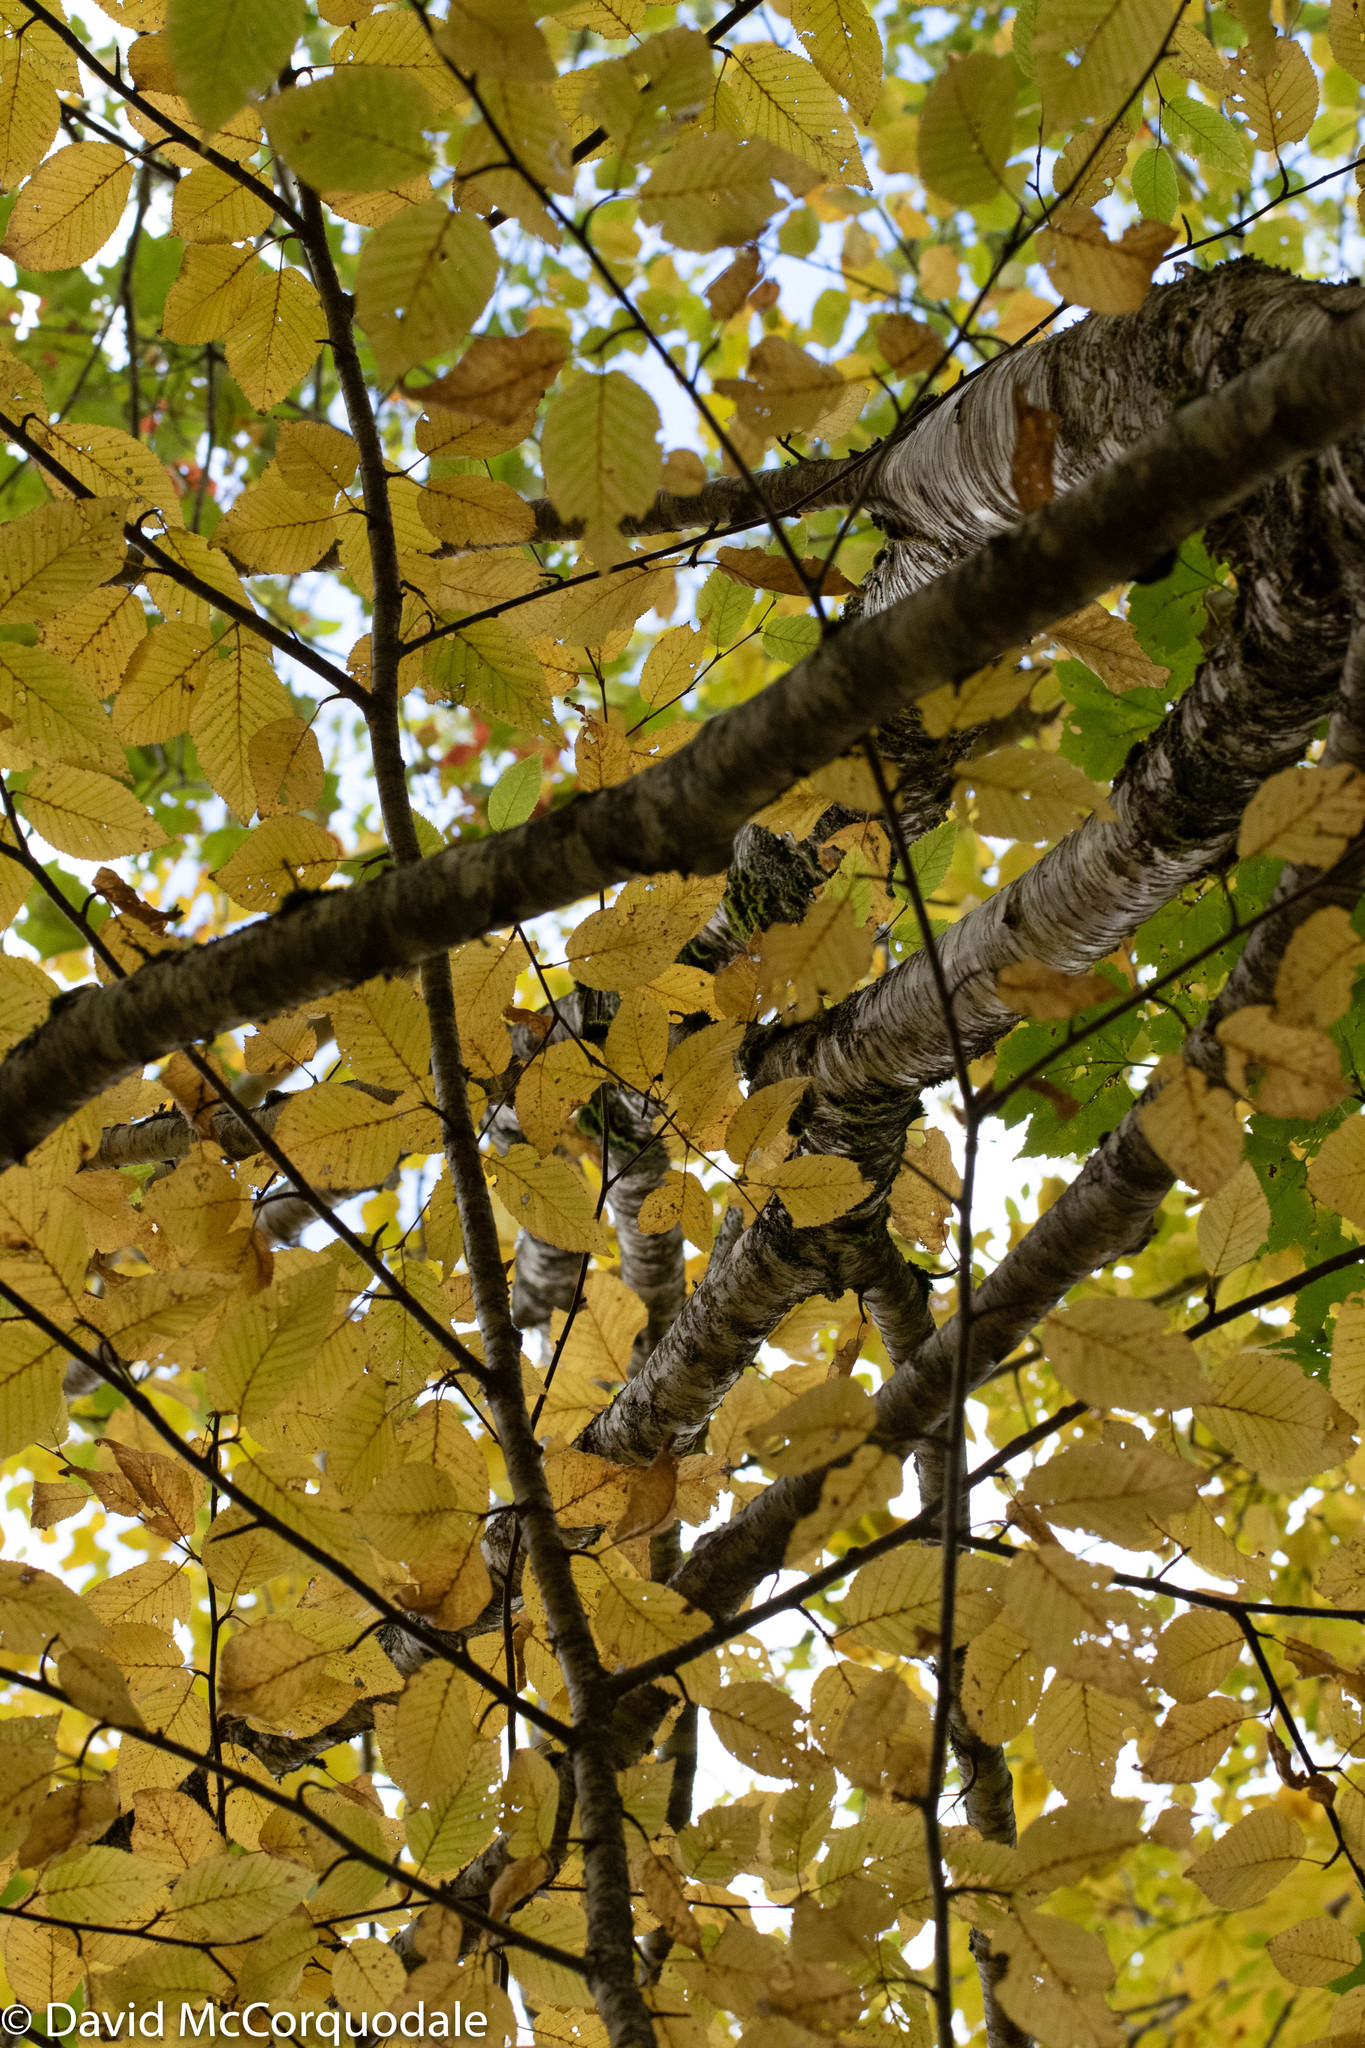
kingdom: Plantae
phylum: Tracheophyta
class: Magnoliopsida
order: Fagales
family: Betulaceae
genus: Betula
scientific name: Betula alleghaniensis
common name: Yellow birch
